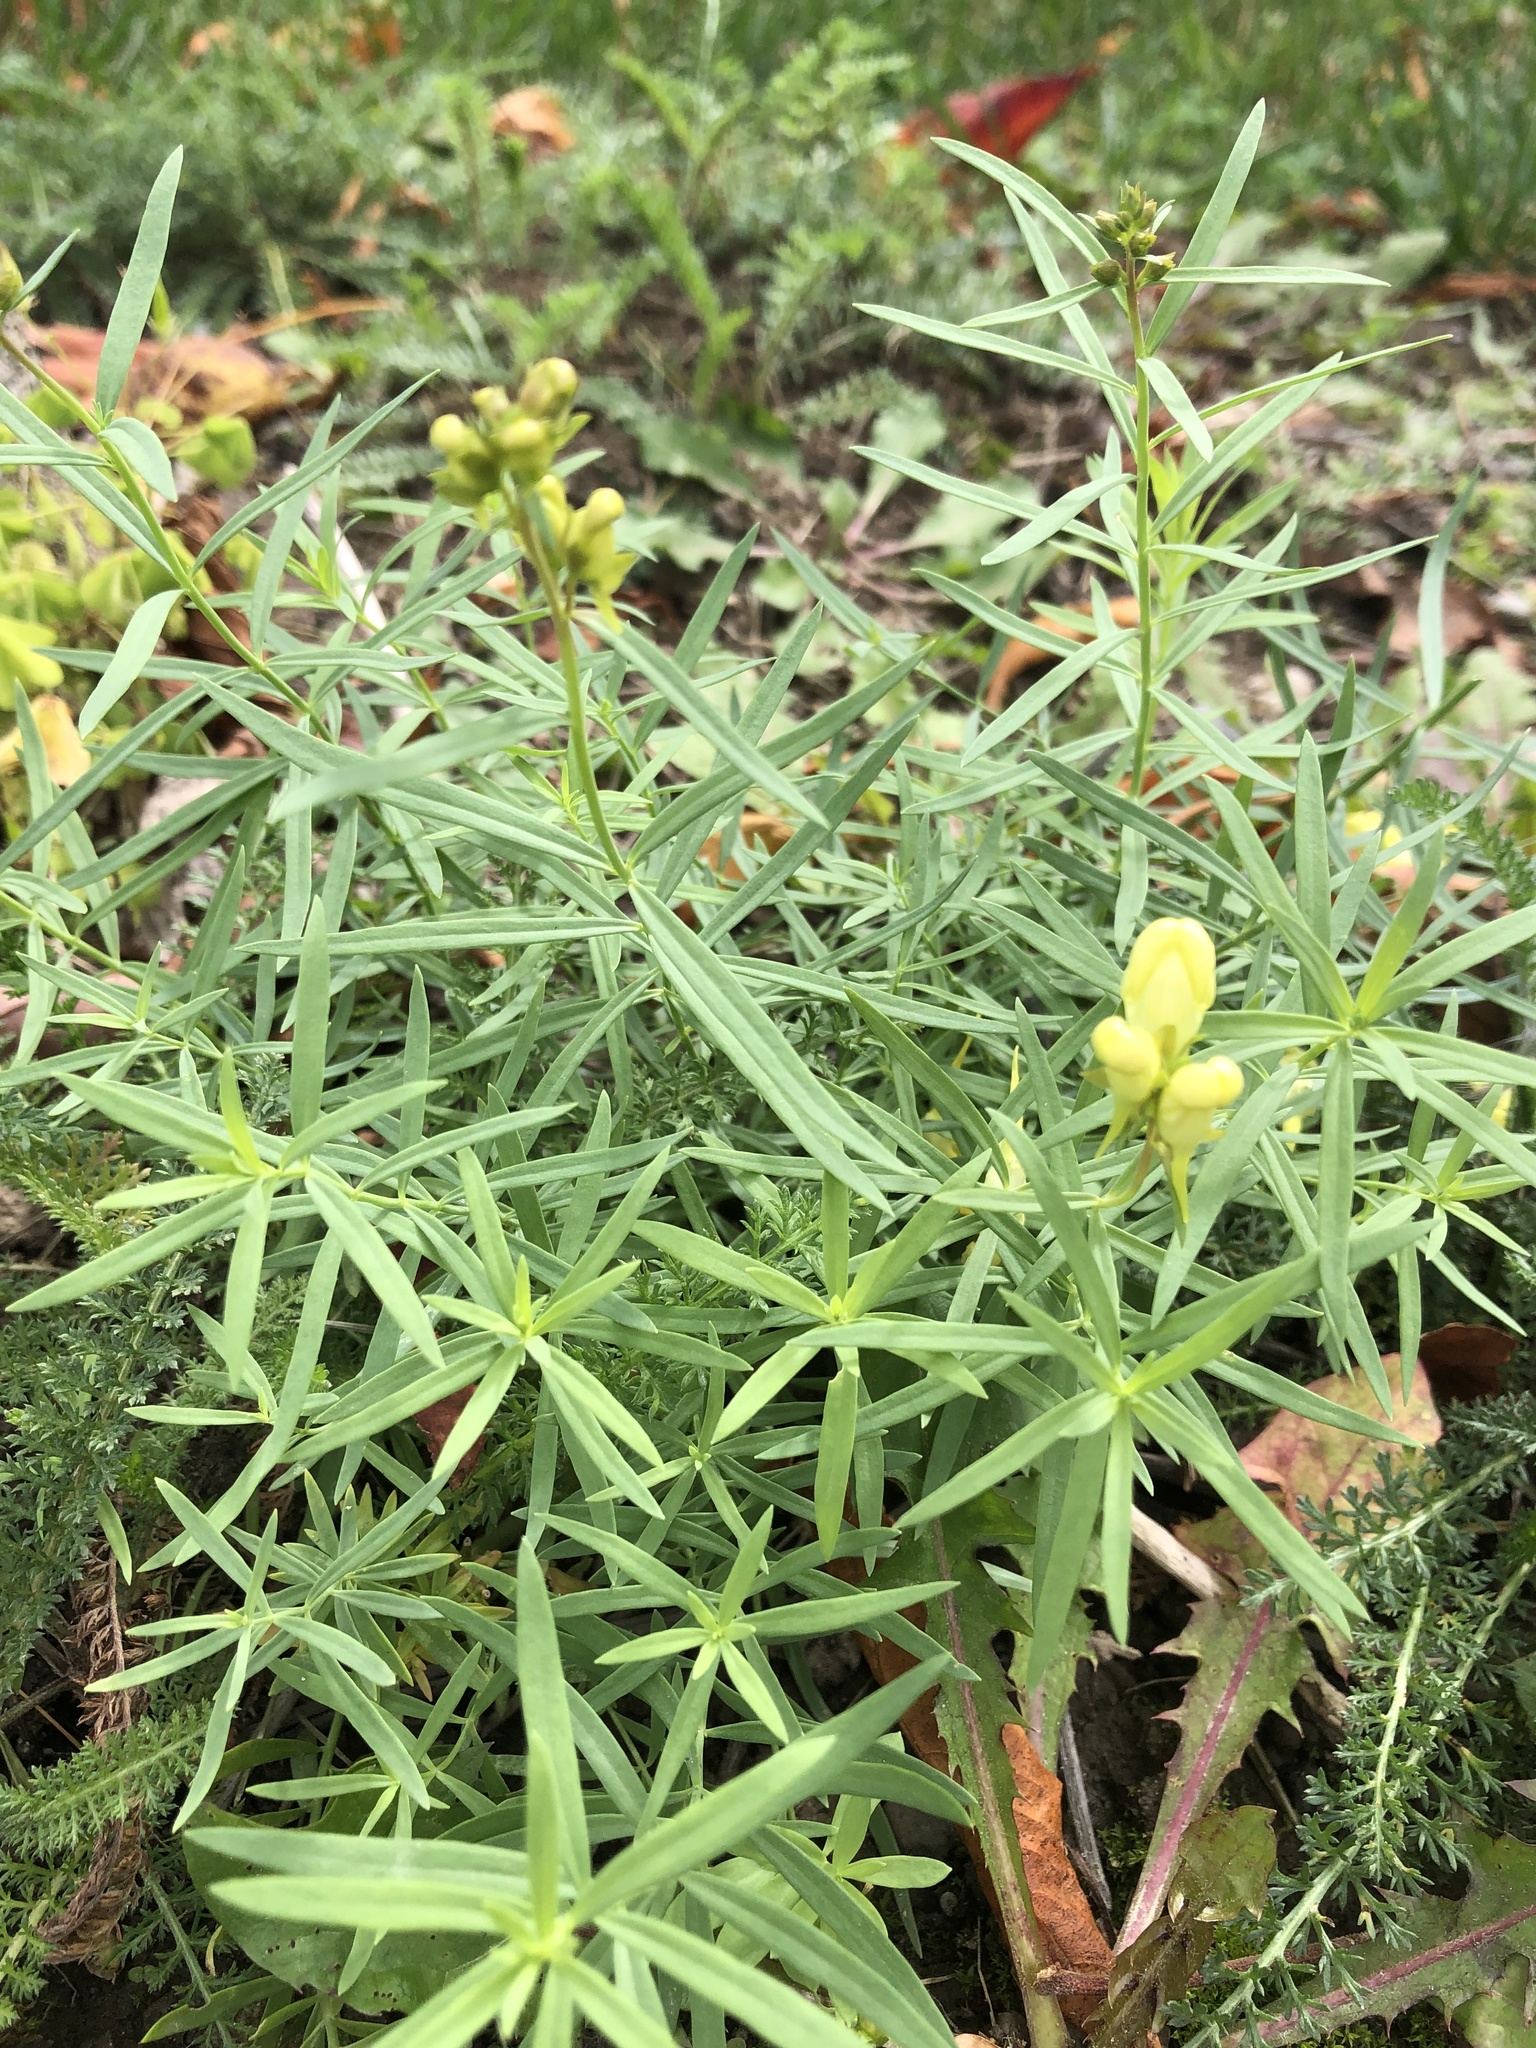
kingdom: Plantae
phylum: Tracheophyta
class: Magnoliopsida
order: Lamiales
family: Plantaginaceae
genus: Linaria
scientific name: Linaria vulgaris
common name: Butter and eggs
